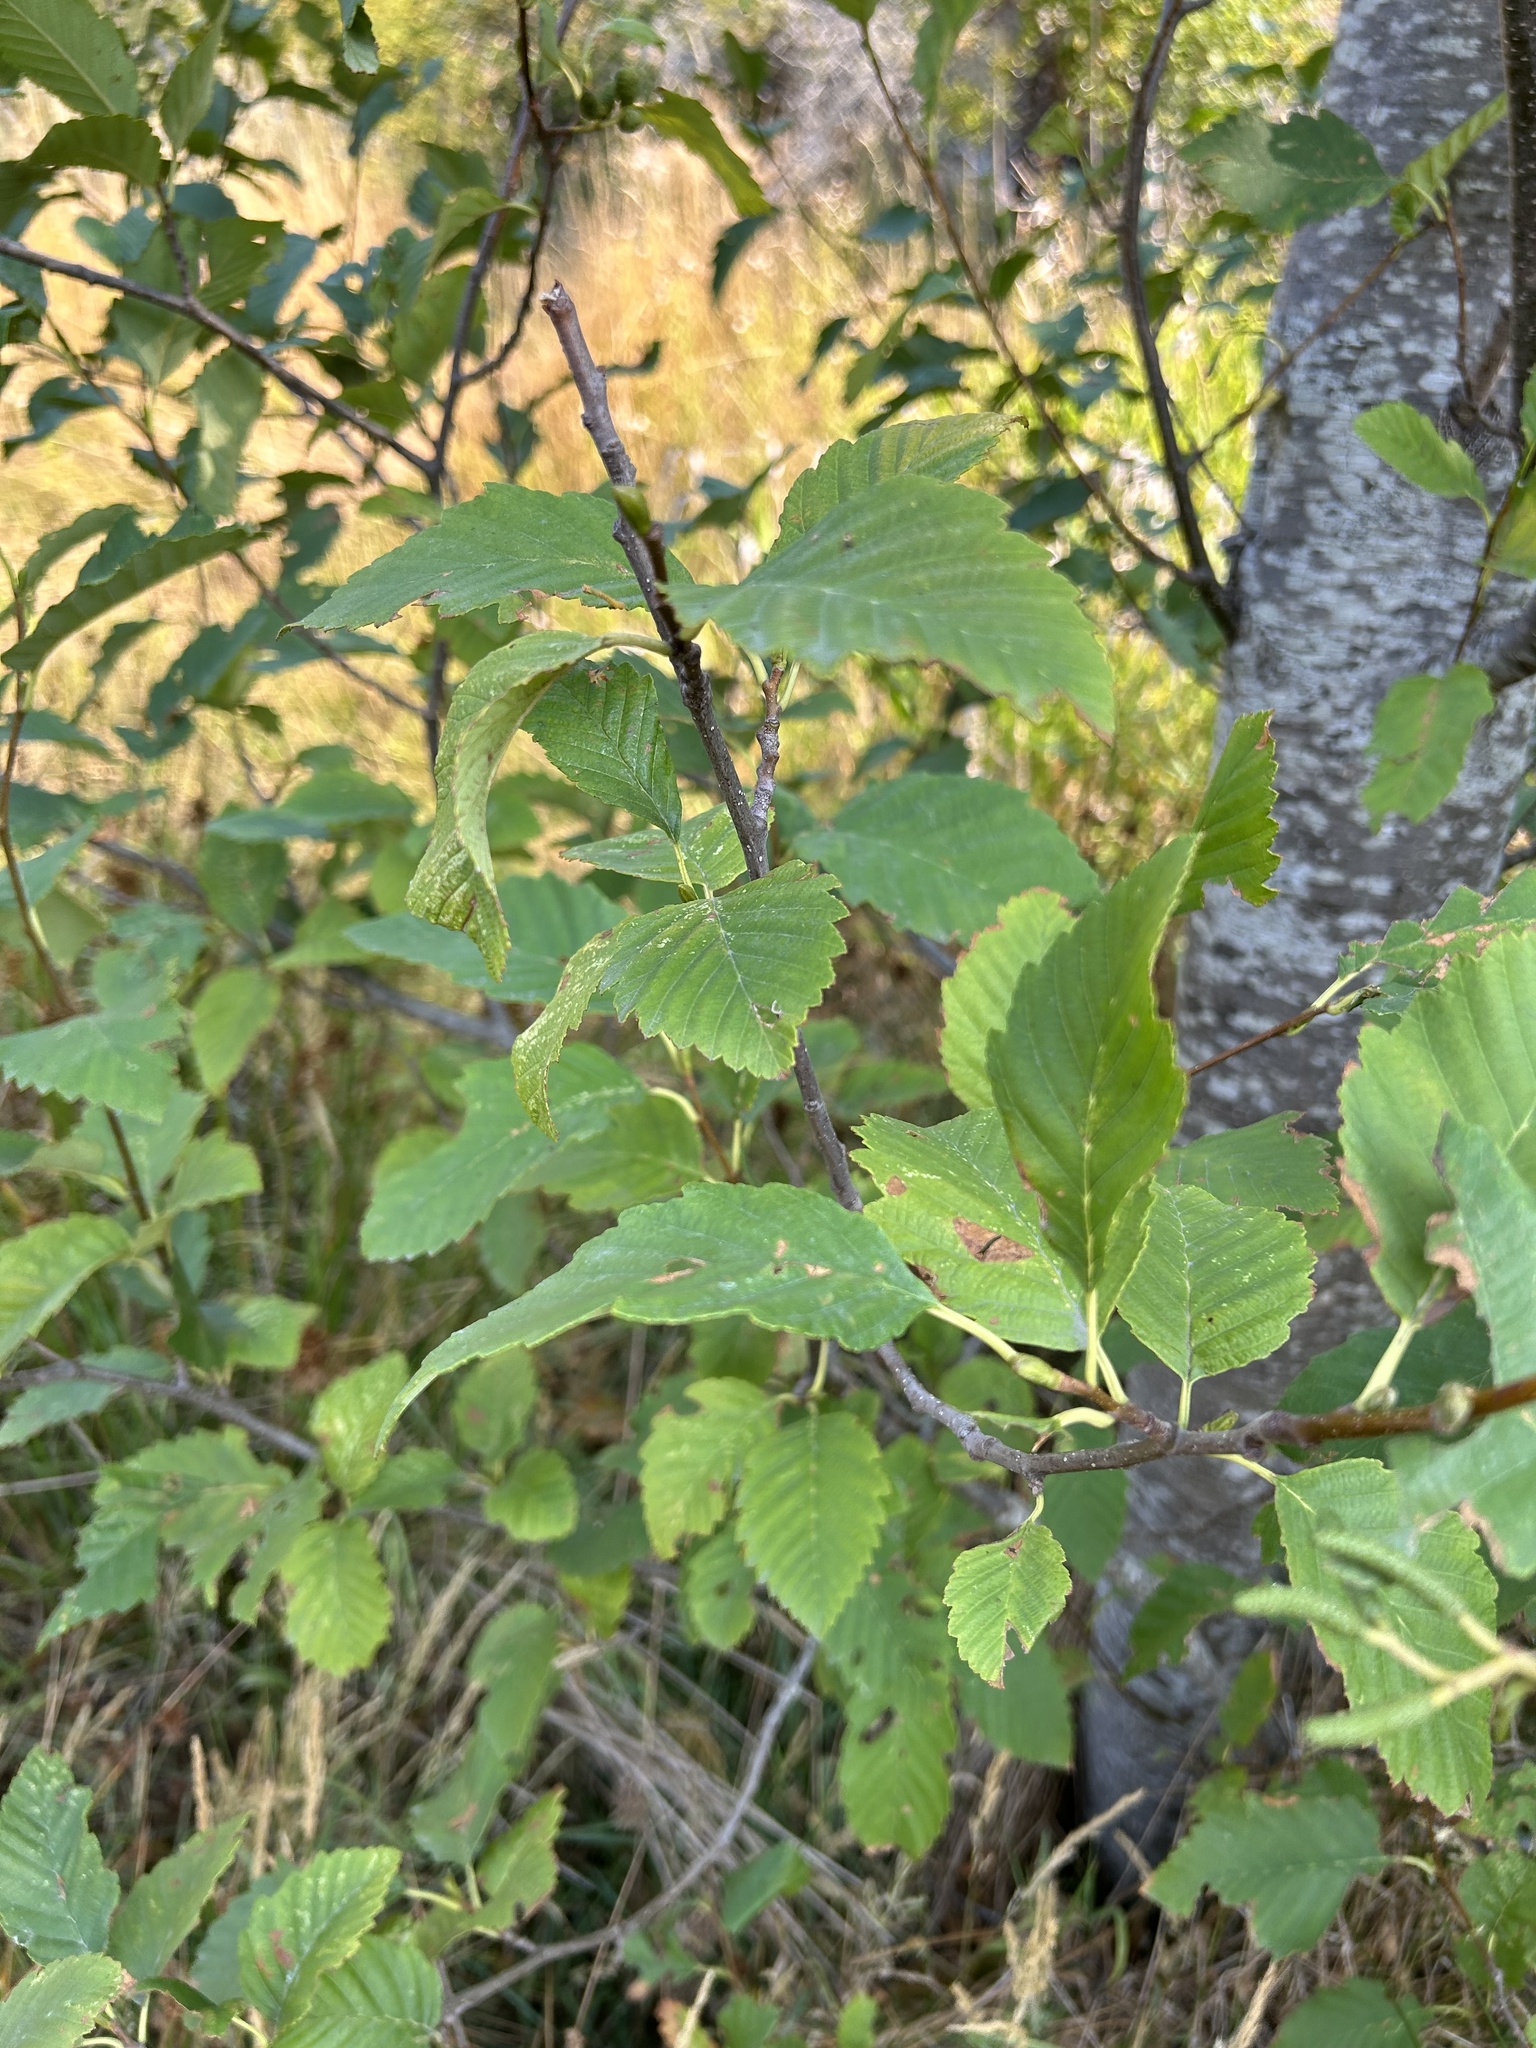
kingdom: Plantae
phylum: Tracheophyta
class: Magnoliopsida
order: Fagales
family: Betulaceae
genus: Alnus
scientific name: Alnus rubra
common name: Red alder
